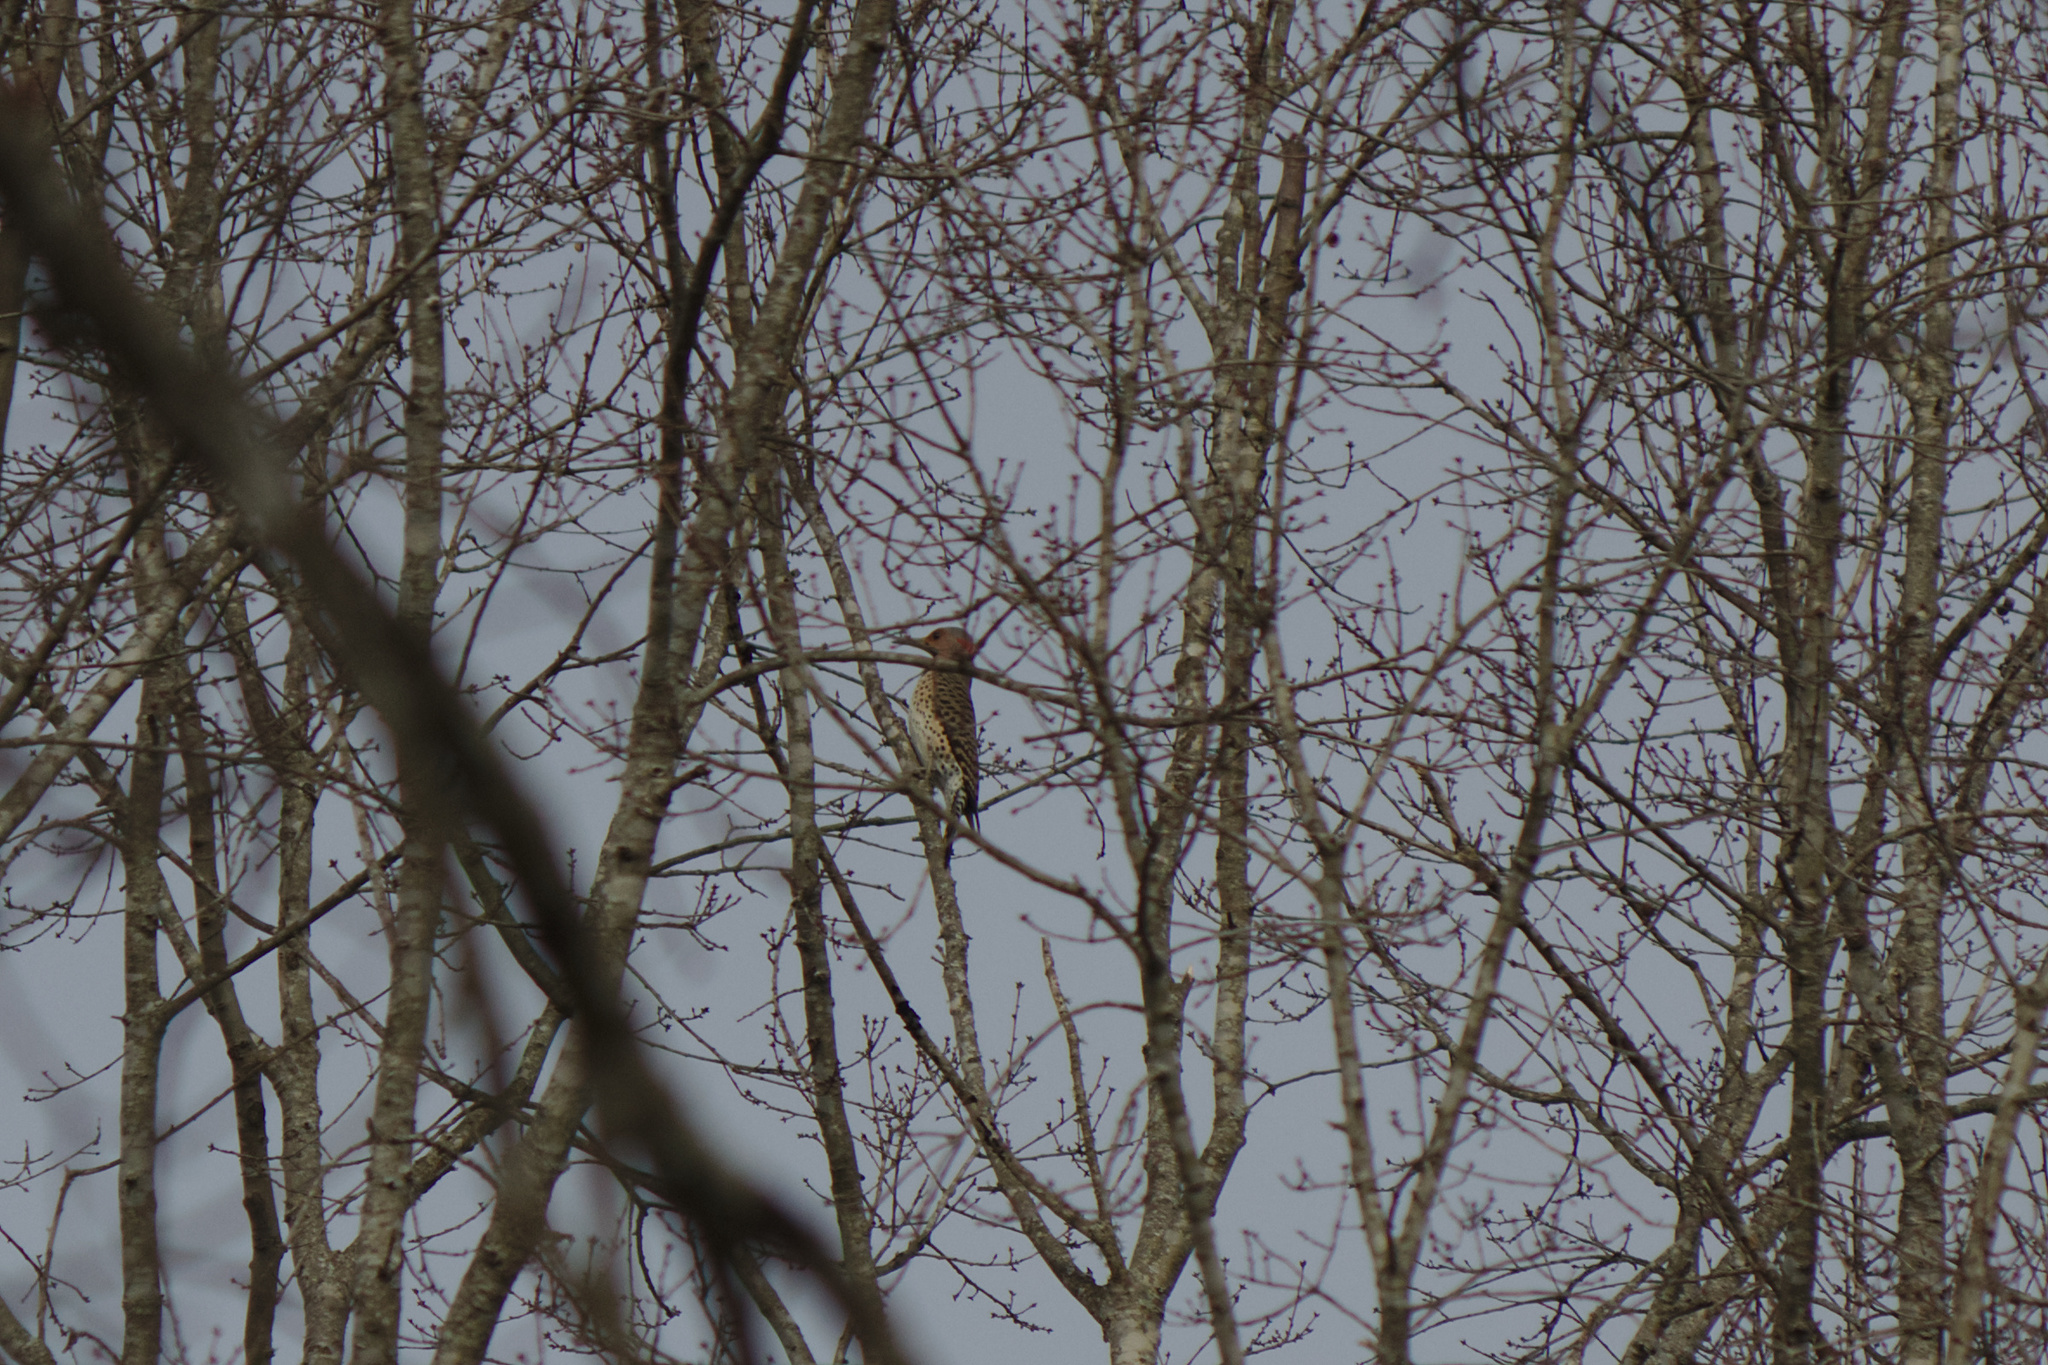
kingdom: Animalia
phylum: Chordata
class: Aves
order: Piciformes
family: Picidae
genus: Colaptes
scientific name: Colaptes auratus
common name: Northern flicker
